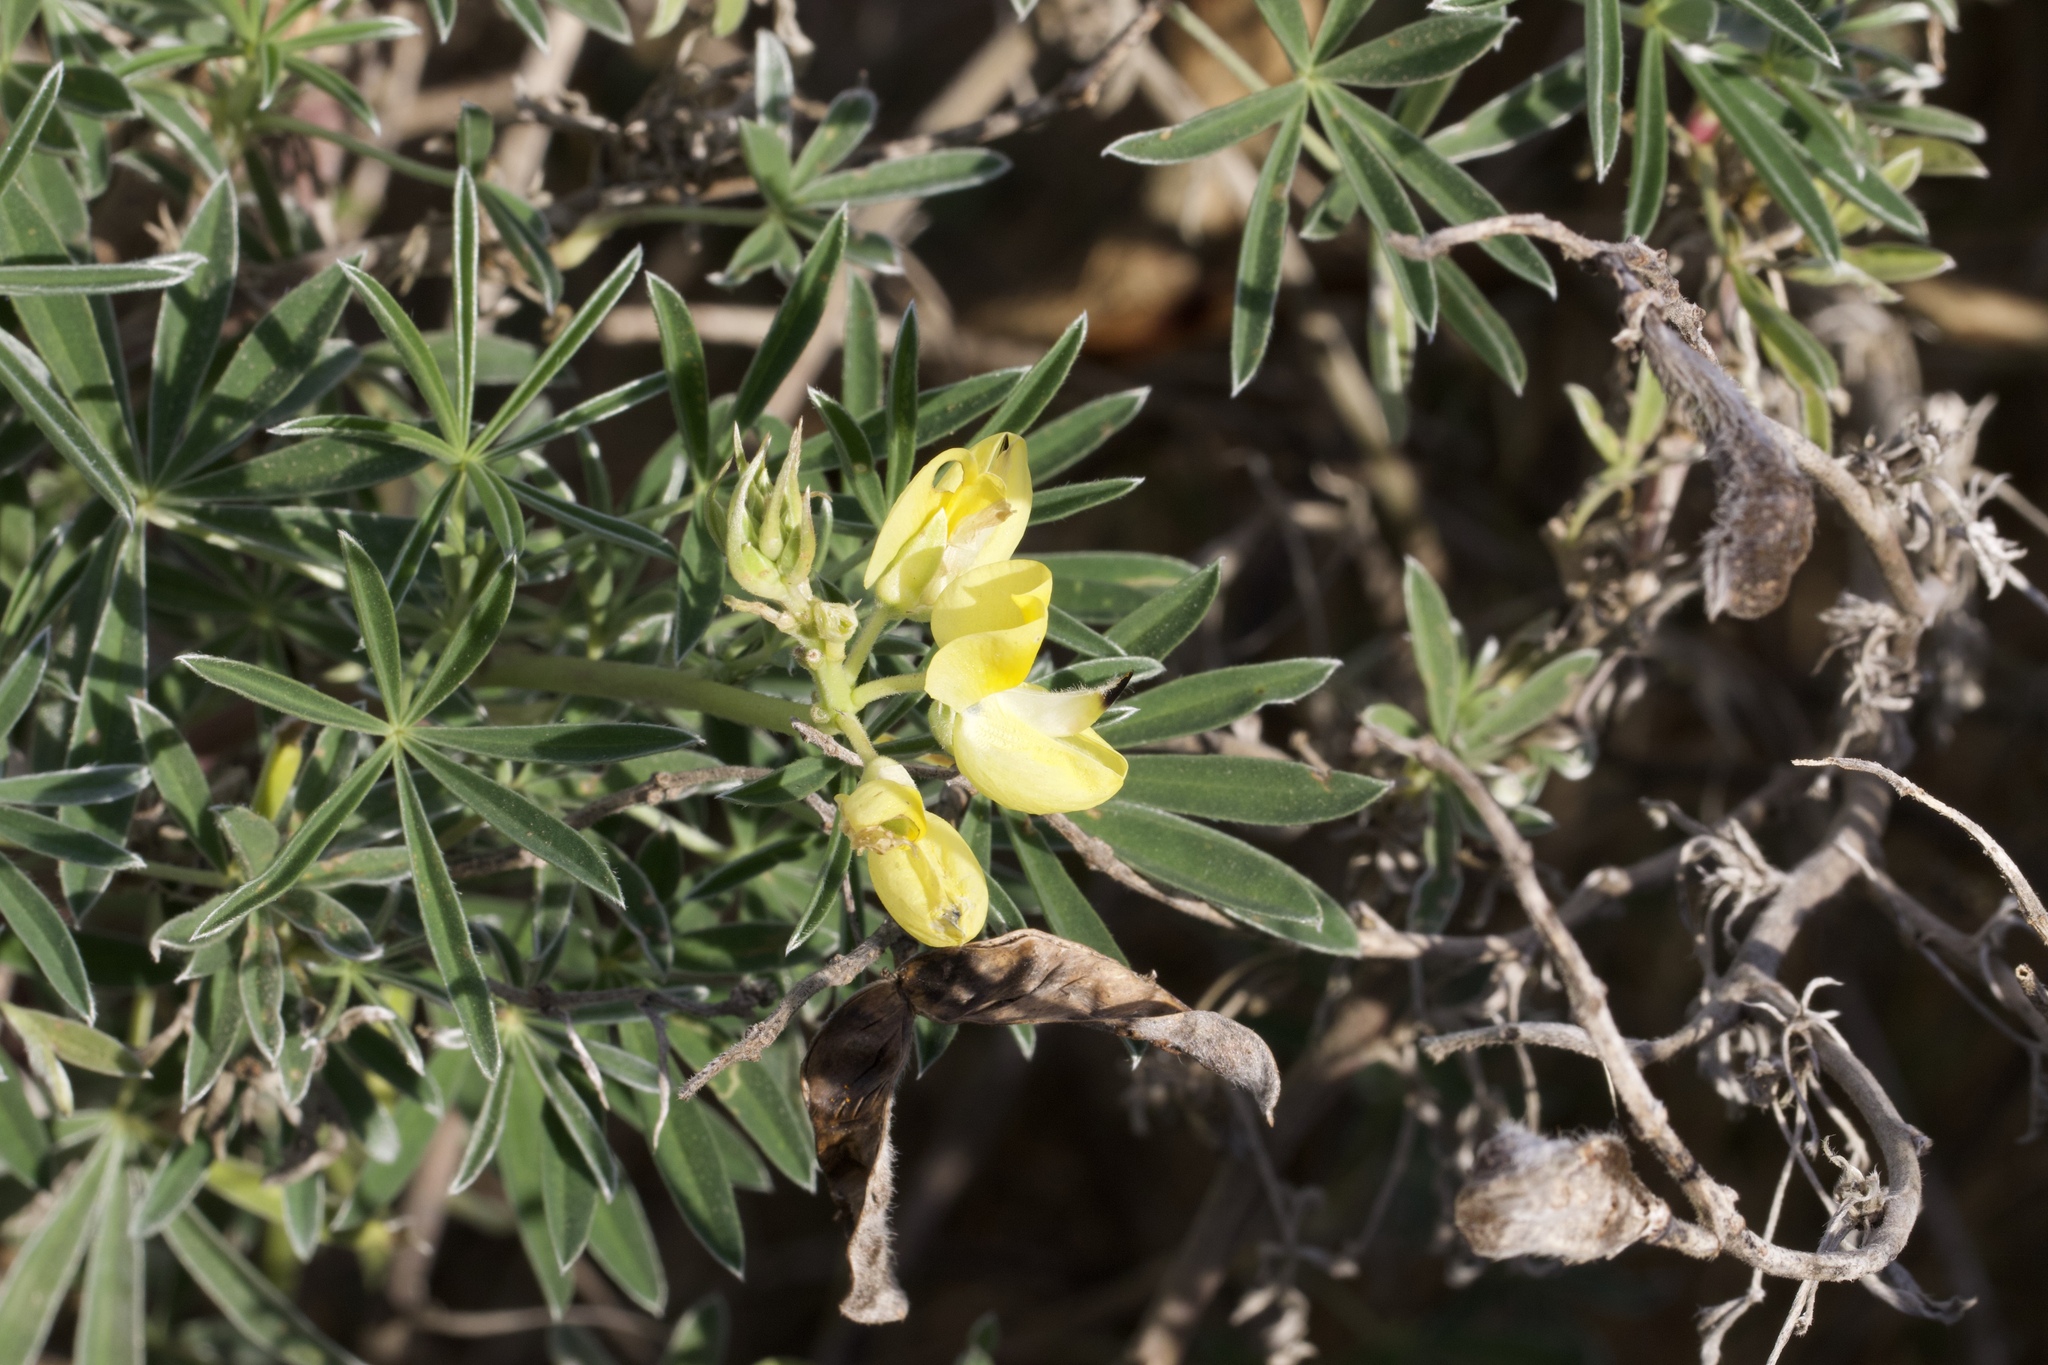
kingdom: Plantae
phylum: Tracheophyta
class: Magnoliopsida
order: Fabales
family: Fabaceae
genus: Lupinus
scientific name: Lupinus arboreus
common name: Yellow bush lupine
